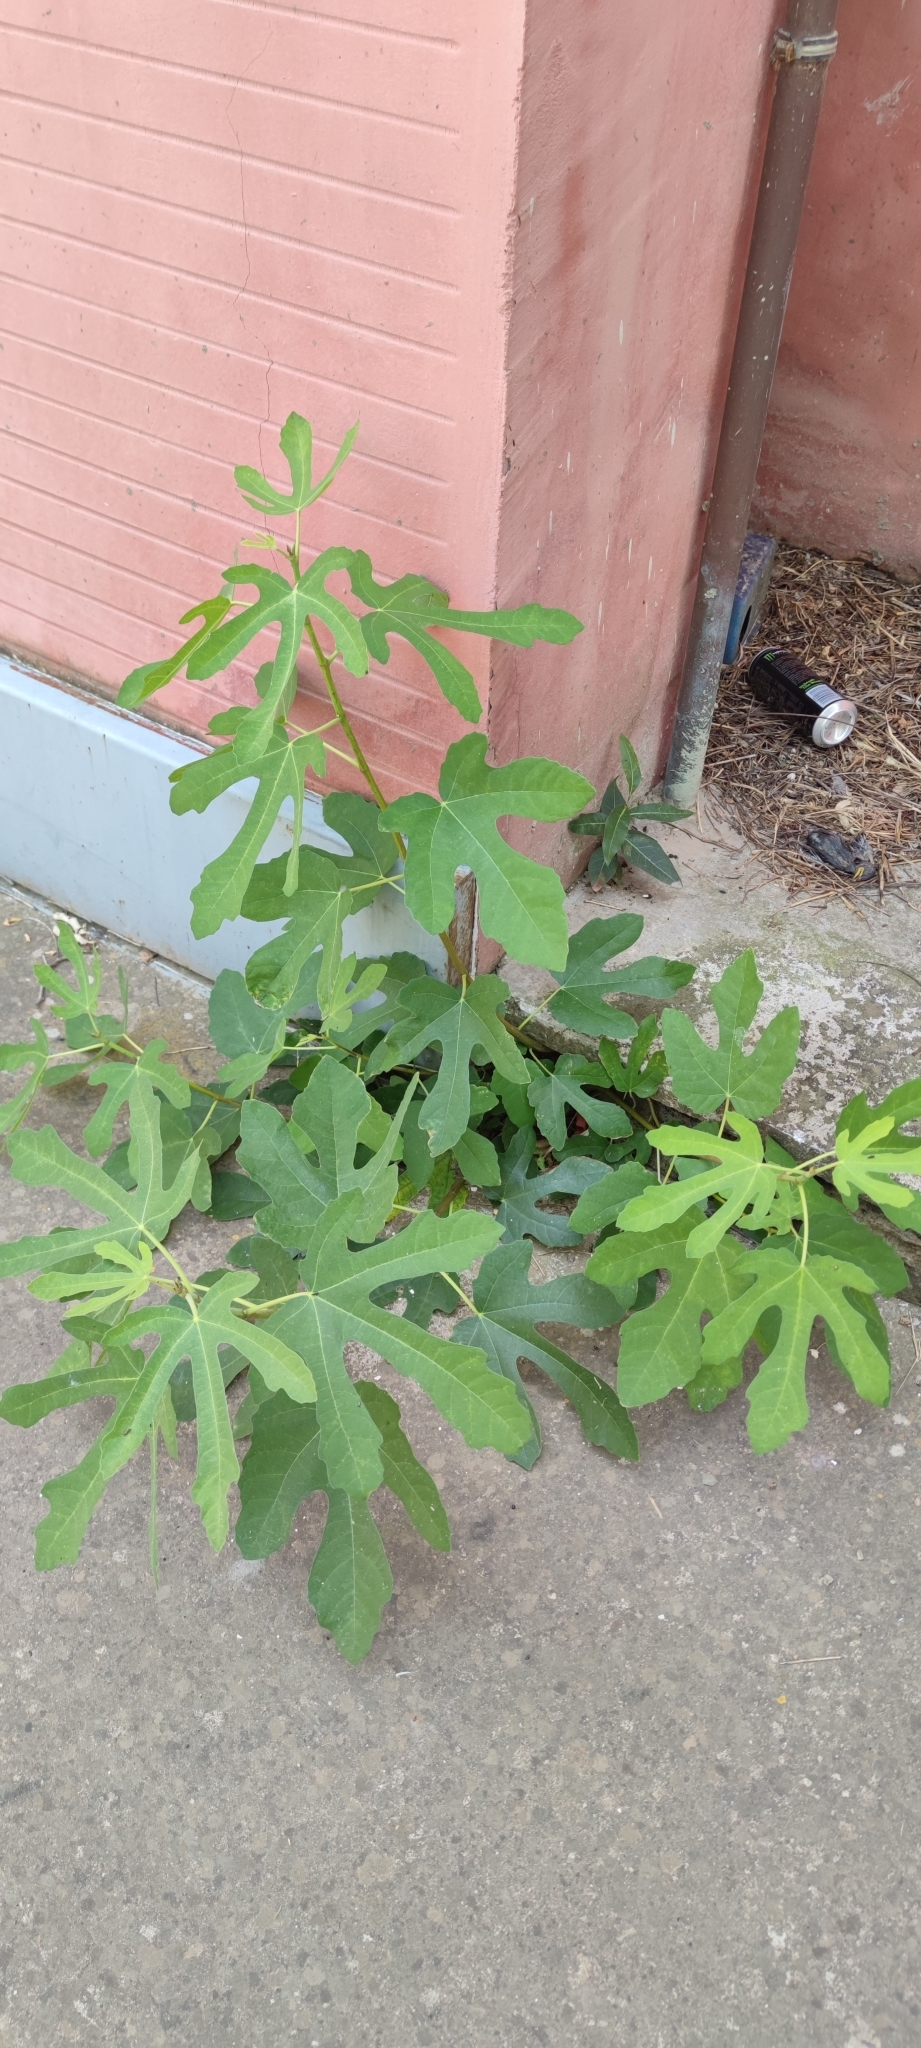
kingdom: Plantae
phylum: Tracheophyta
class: Magnoliopsida
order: Rosales
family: Moraceae
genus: Ficus
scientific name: Ficus carica
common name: Fig
